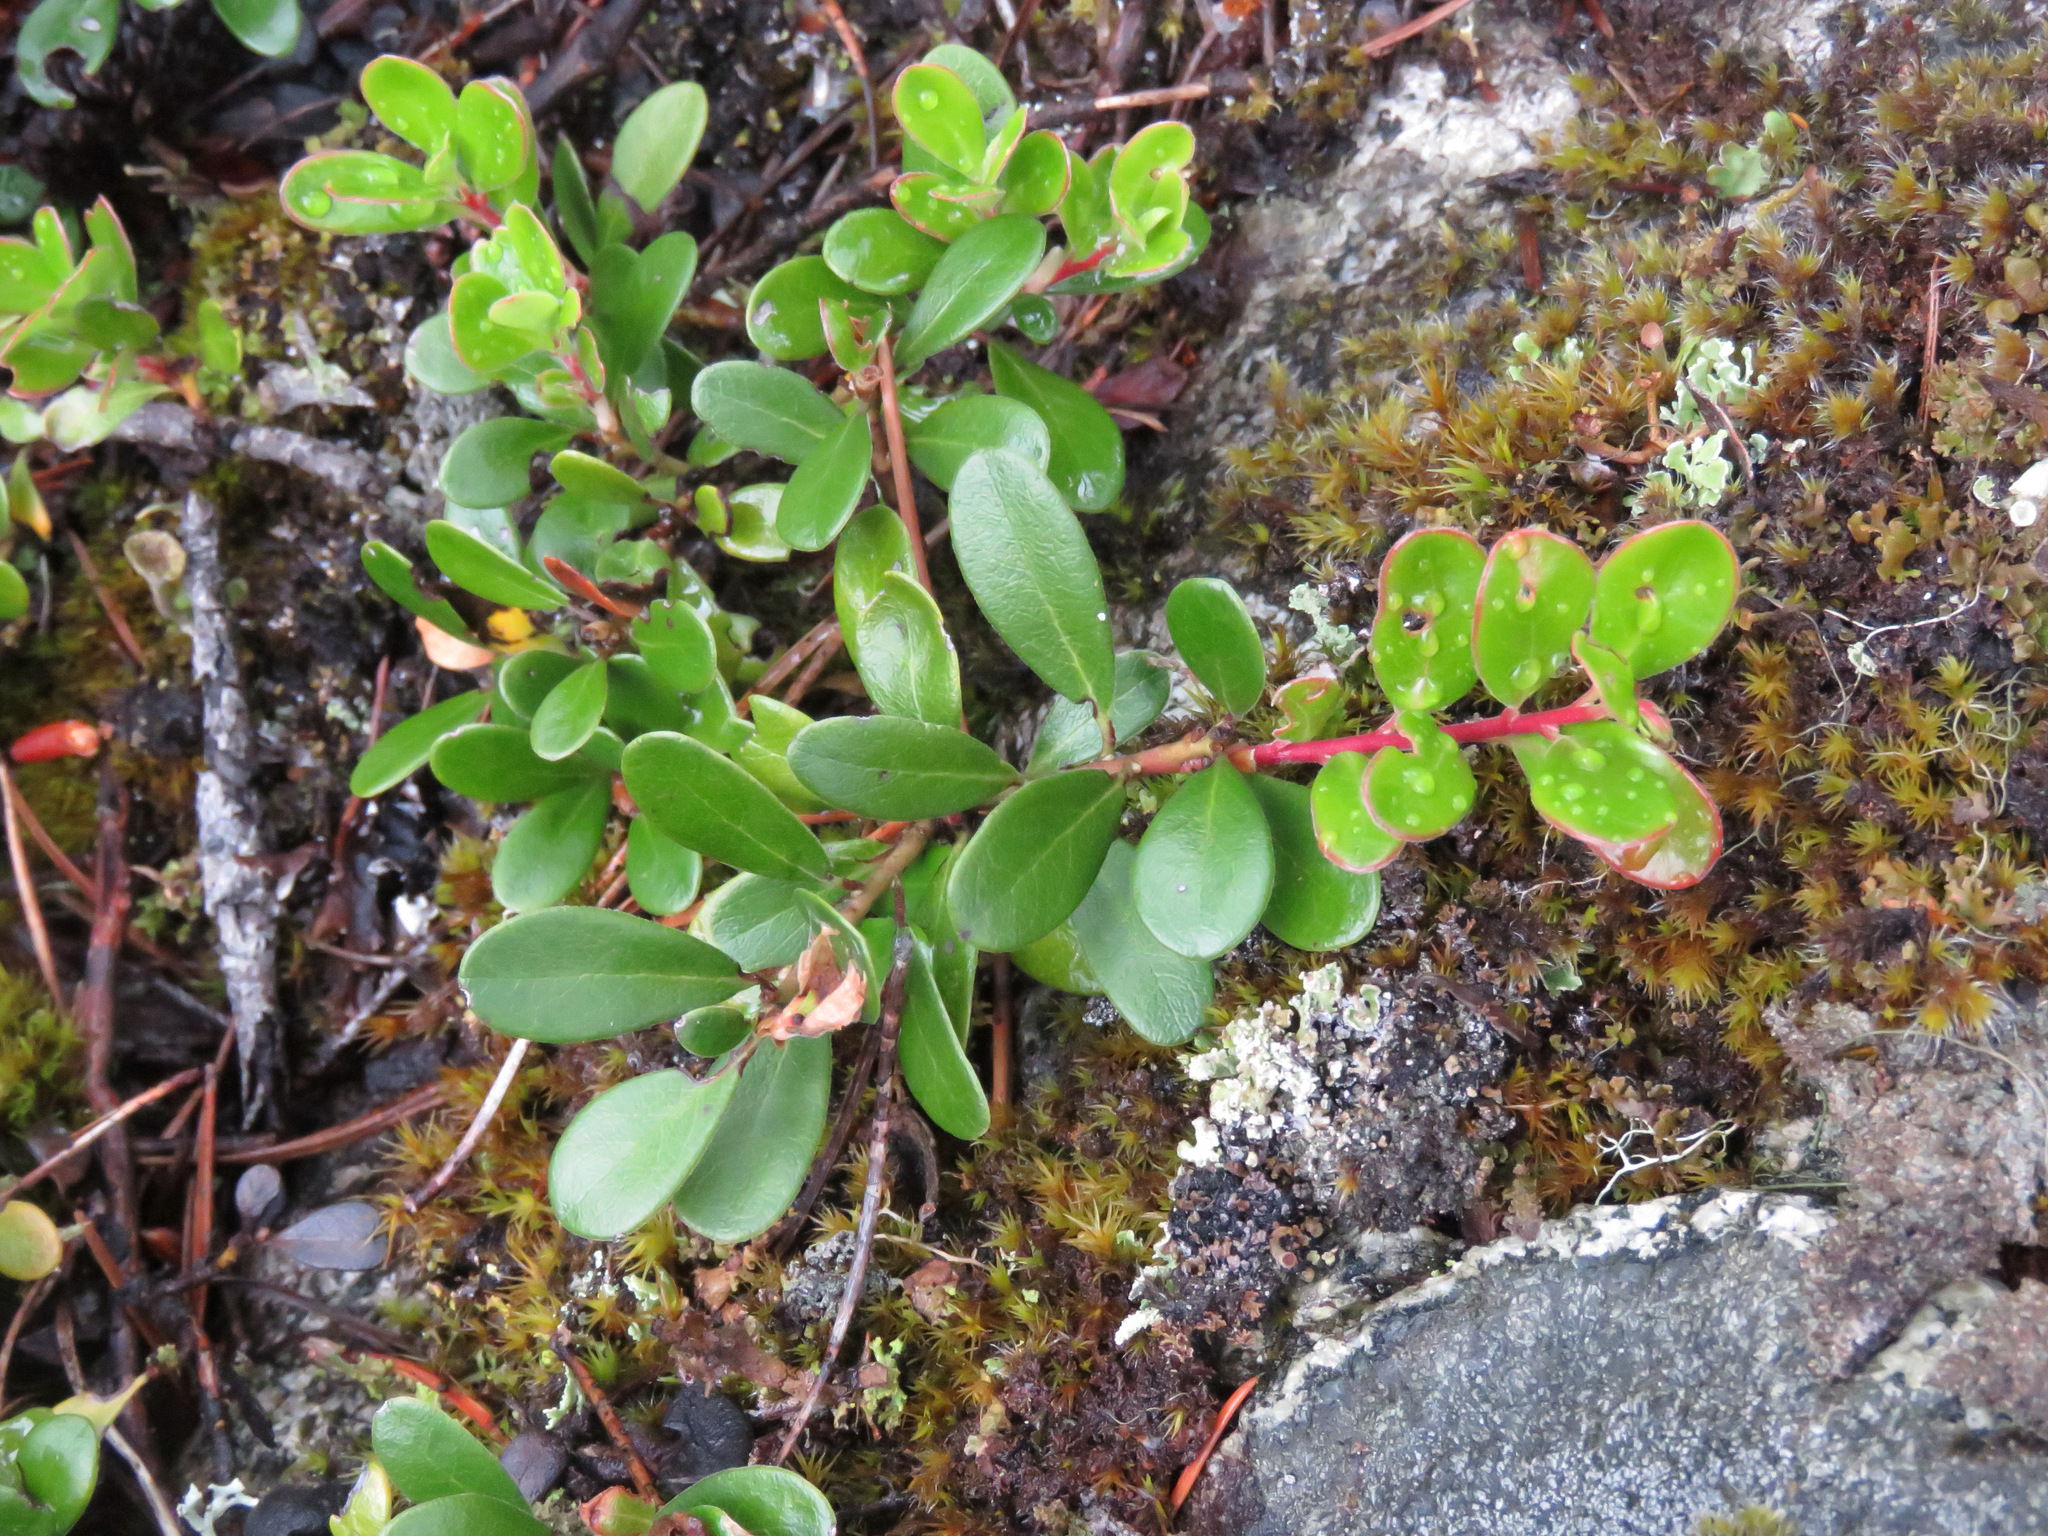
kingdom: Plantae
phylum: Tracheophyta
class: Magnoliopsida
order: Ericales
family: Ericaceae
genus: Arctostaphylos
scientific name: Arctostaphylos uva-ursi
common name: Bearberry
